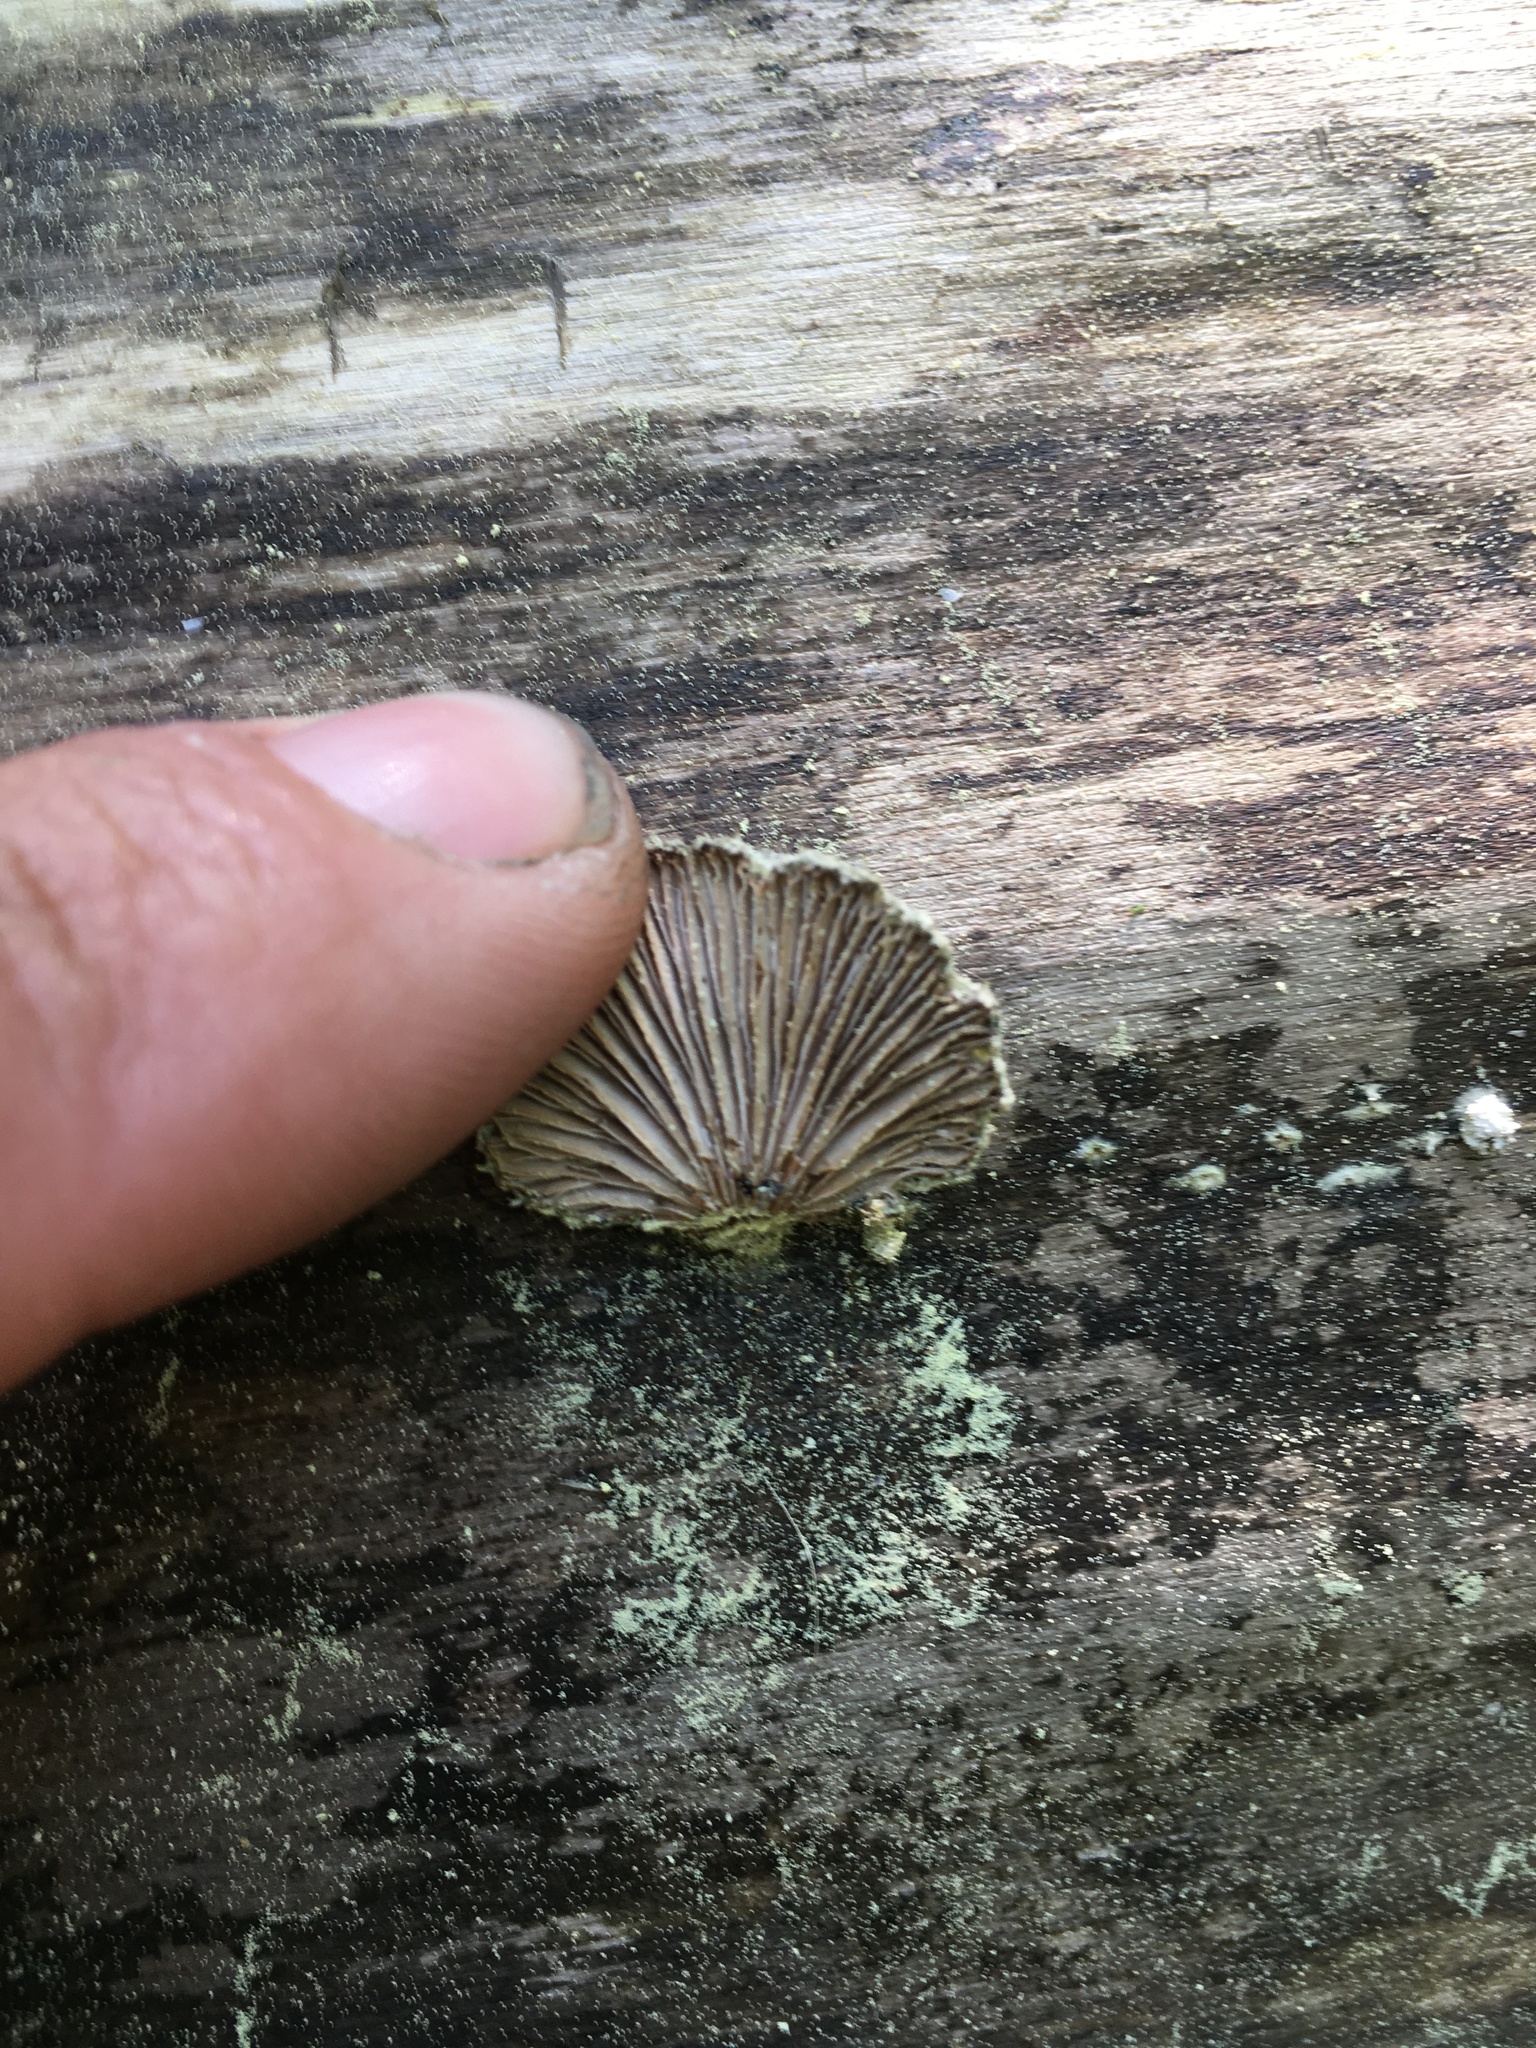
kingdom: Fungi
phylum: Basidiomycota
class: Agaricomycetes
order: Agaricales
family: Schizophyllaceae
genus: Schizophyllum
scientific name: Schizophyllum commune
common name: Common porecrust
